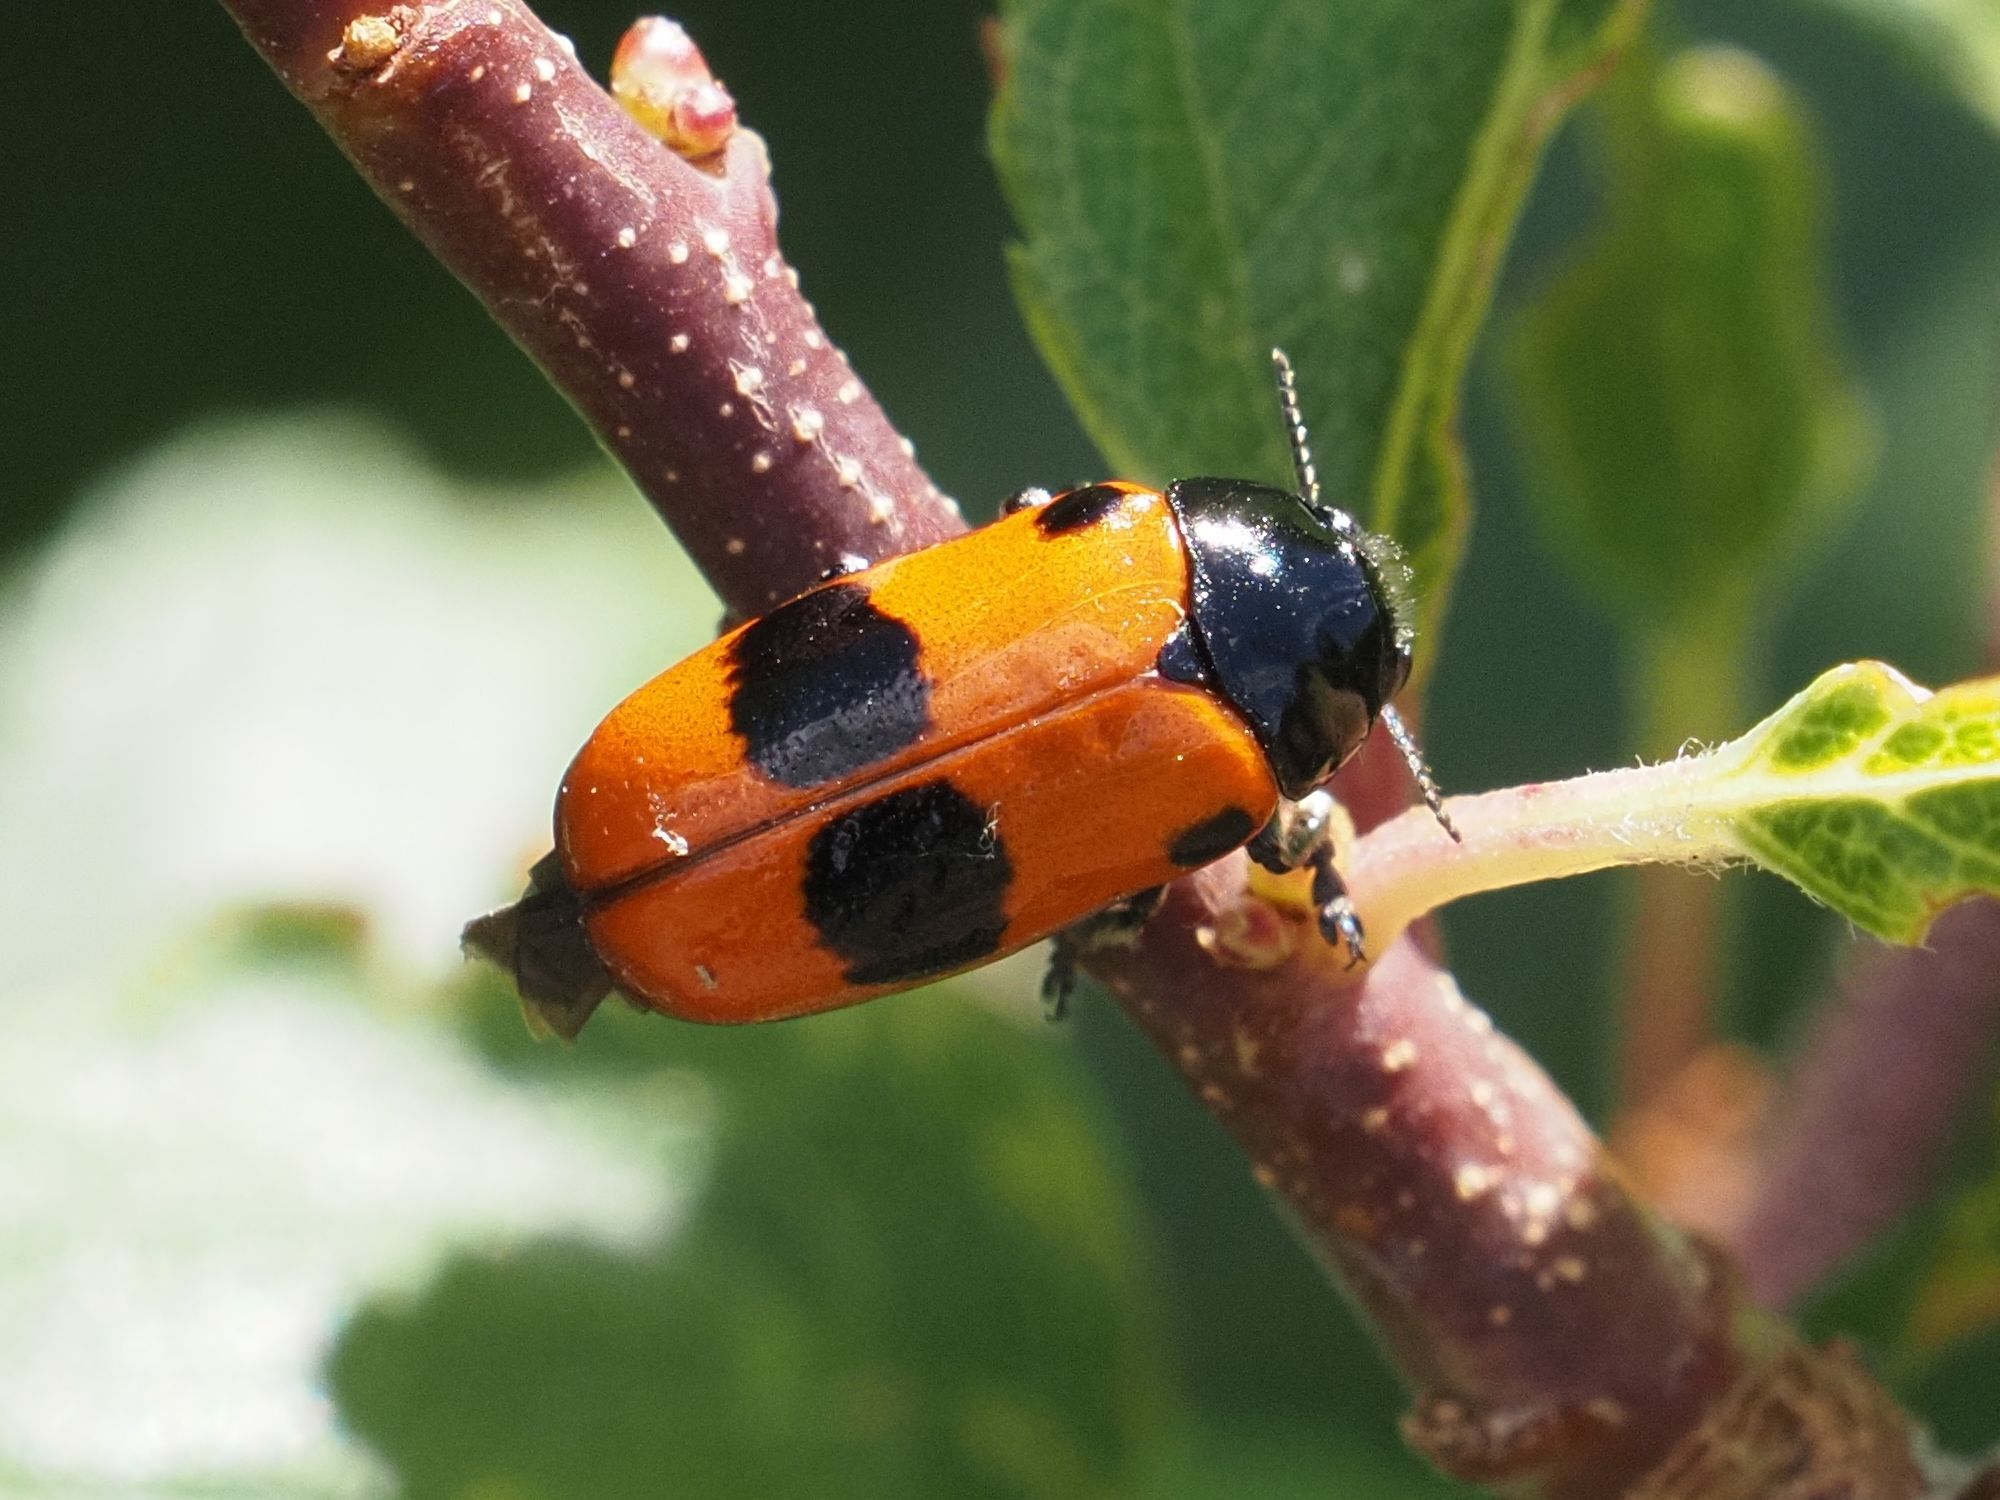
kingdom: Animalia
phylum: Arthropoda
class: Insecta
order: Coleoptera
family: Chrysomelidae
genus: Clytra
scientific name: Clytra laeviuscula
